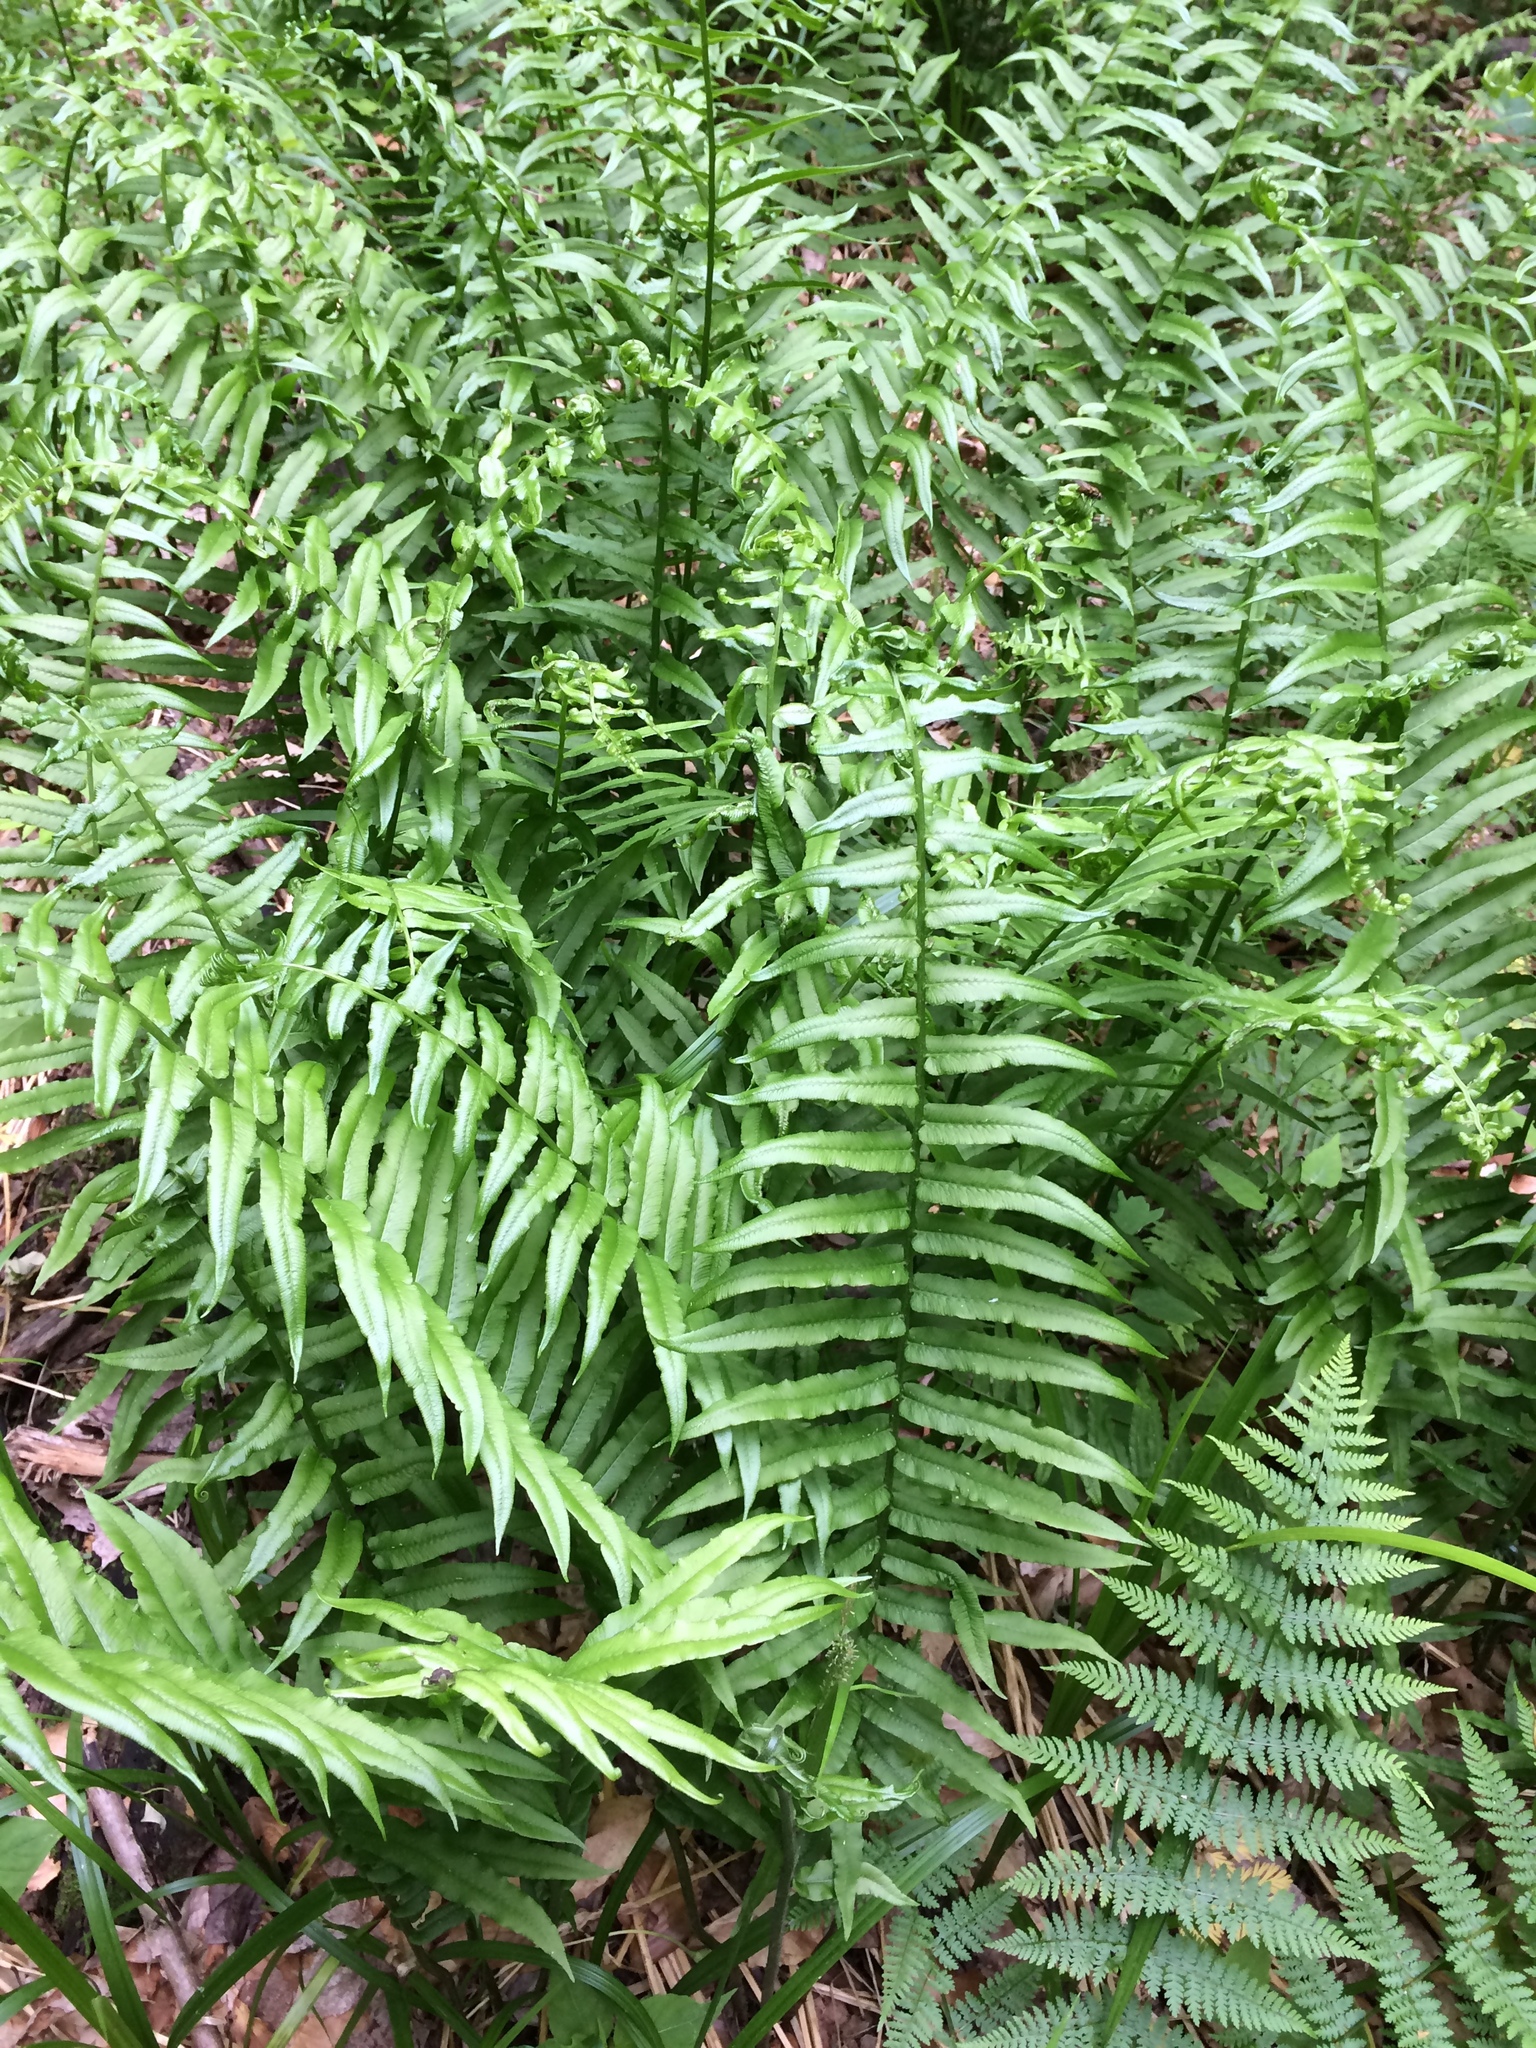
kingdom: Plantae
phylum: Tracheophyta
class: Polypodiopsida
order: Polypodiales
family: Diplaziopsidaceae
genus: Homalosorus
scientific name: Homalosorus pycnocarpos
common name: Glade fern
